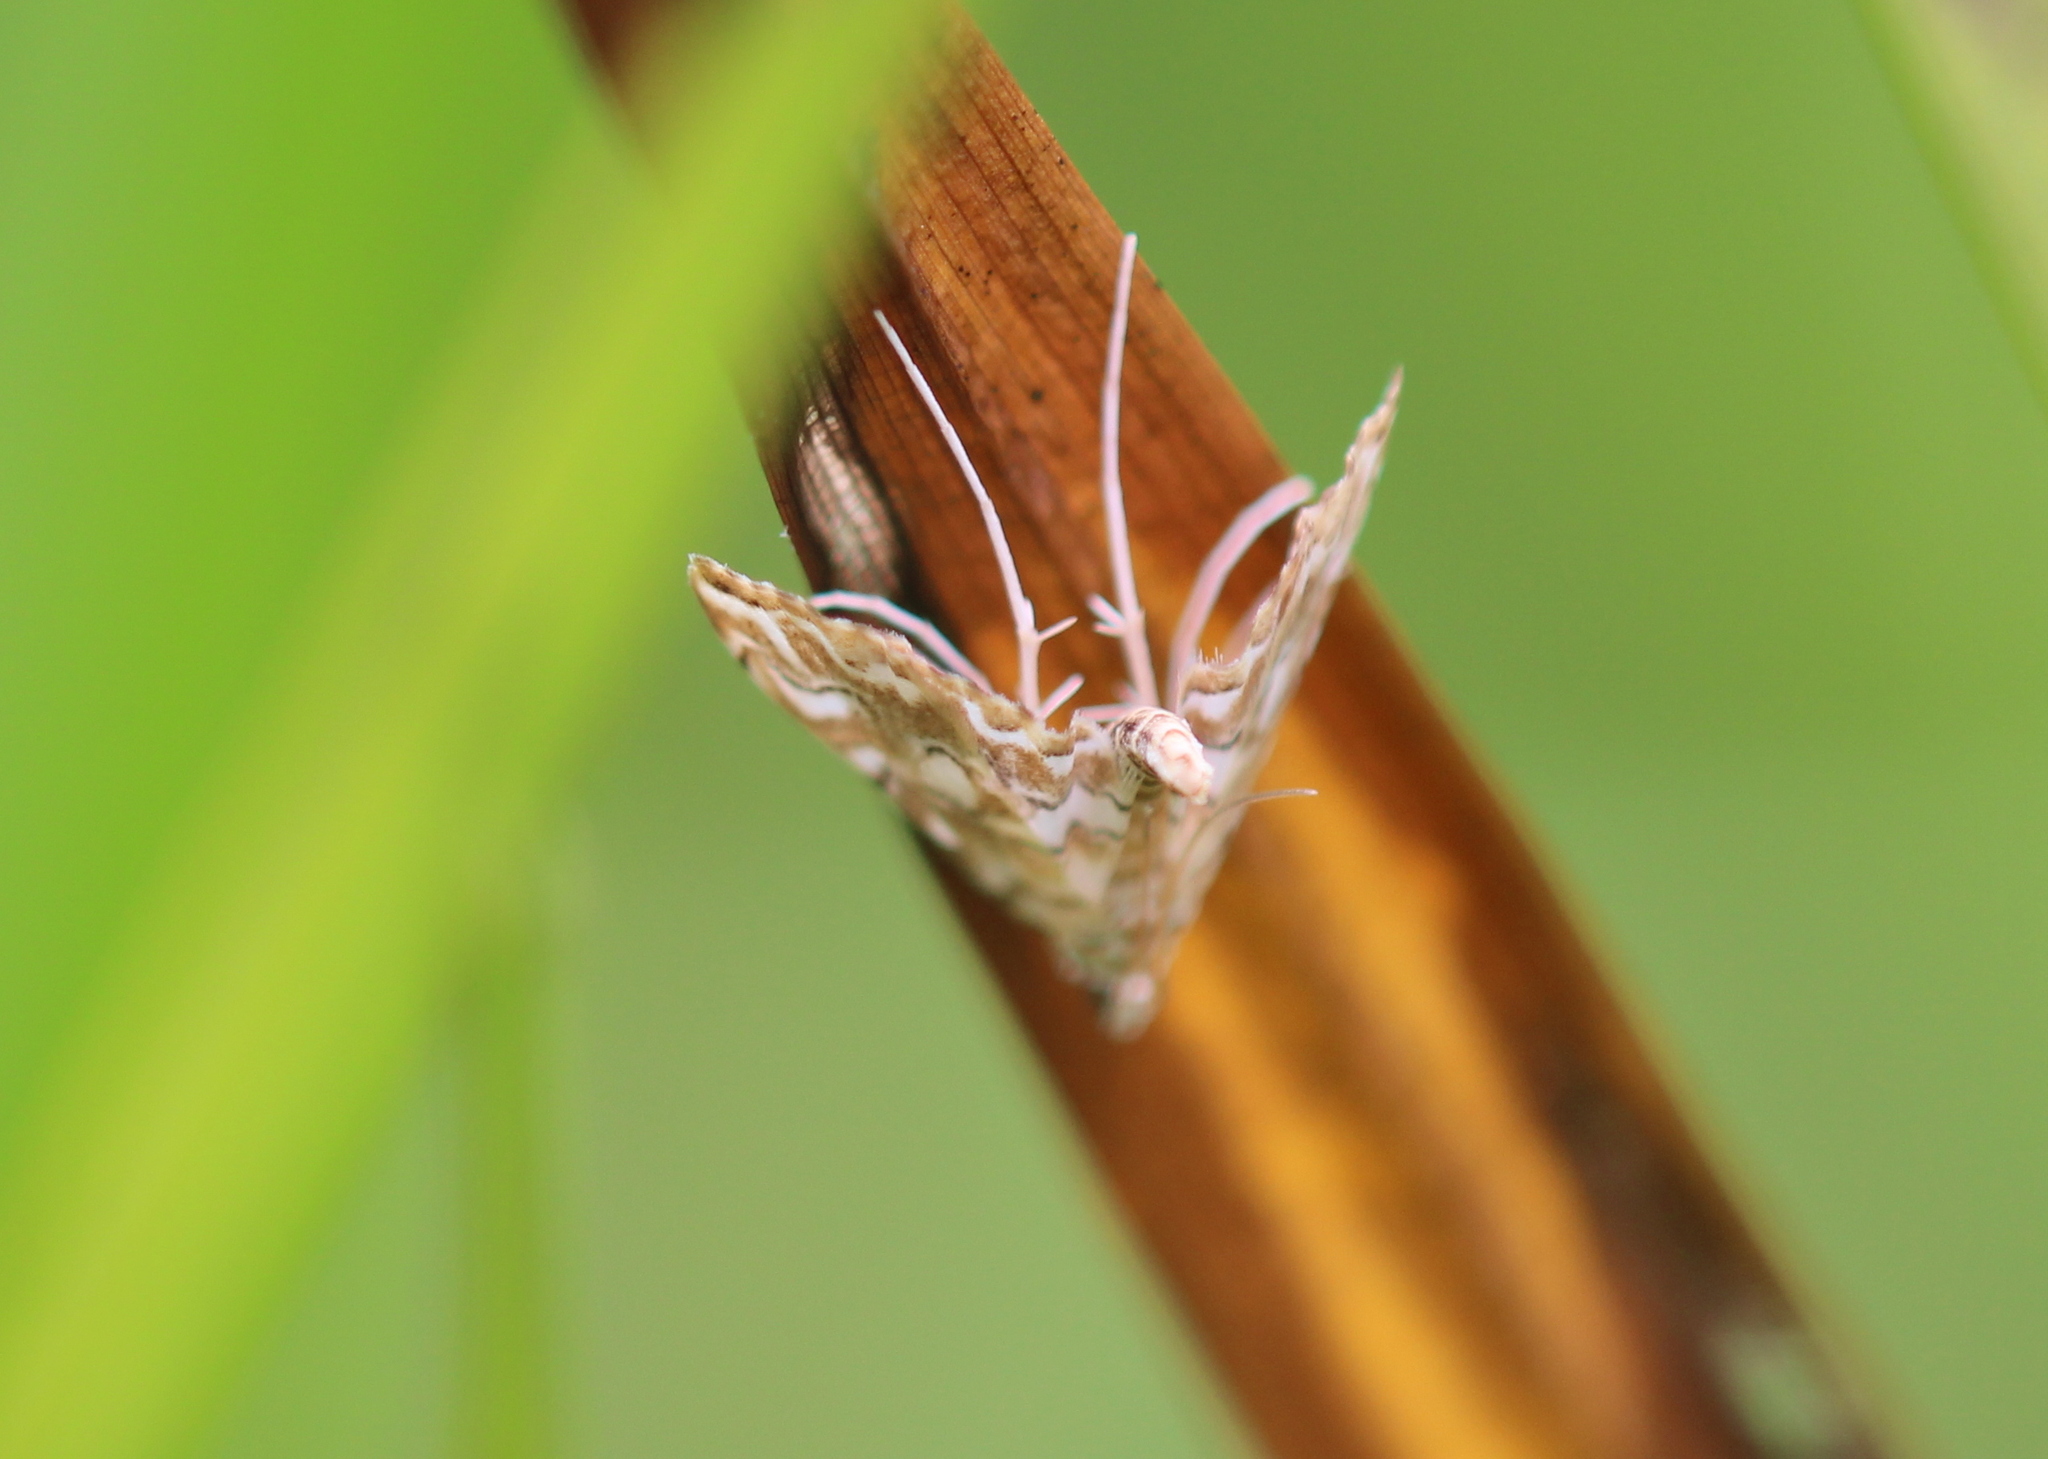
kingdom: Animalia
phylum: Arthropoda
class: Insecta
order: Lepidoptera
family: Crambidae
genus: Elophila
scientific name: Elophila icciusalis
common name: Pondside pyralid moth
